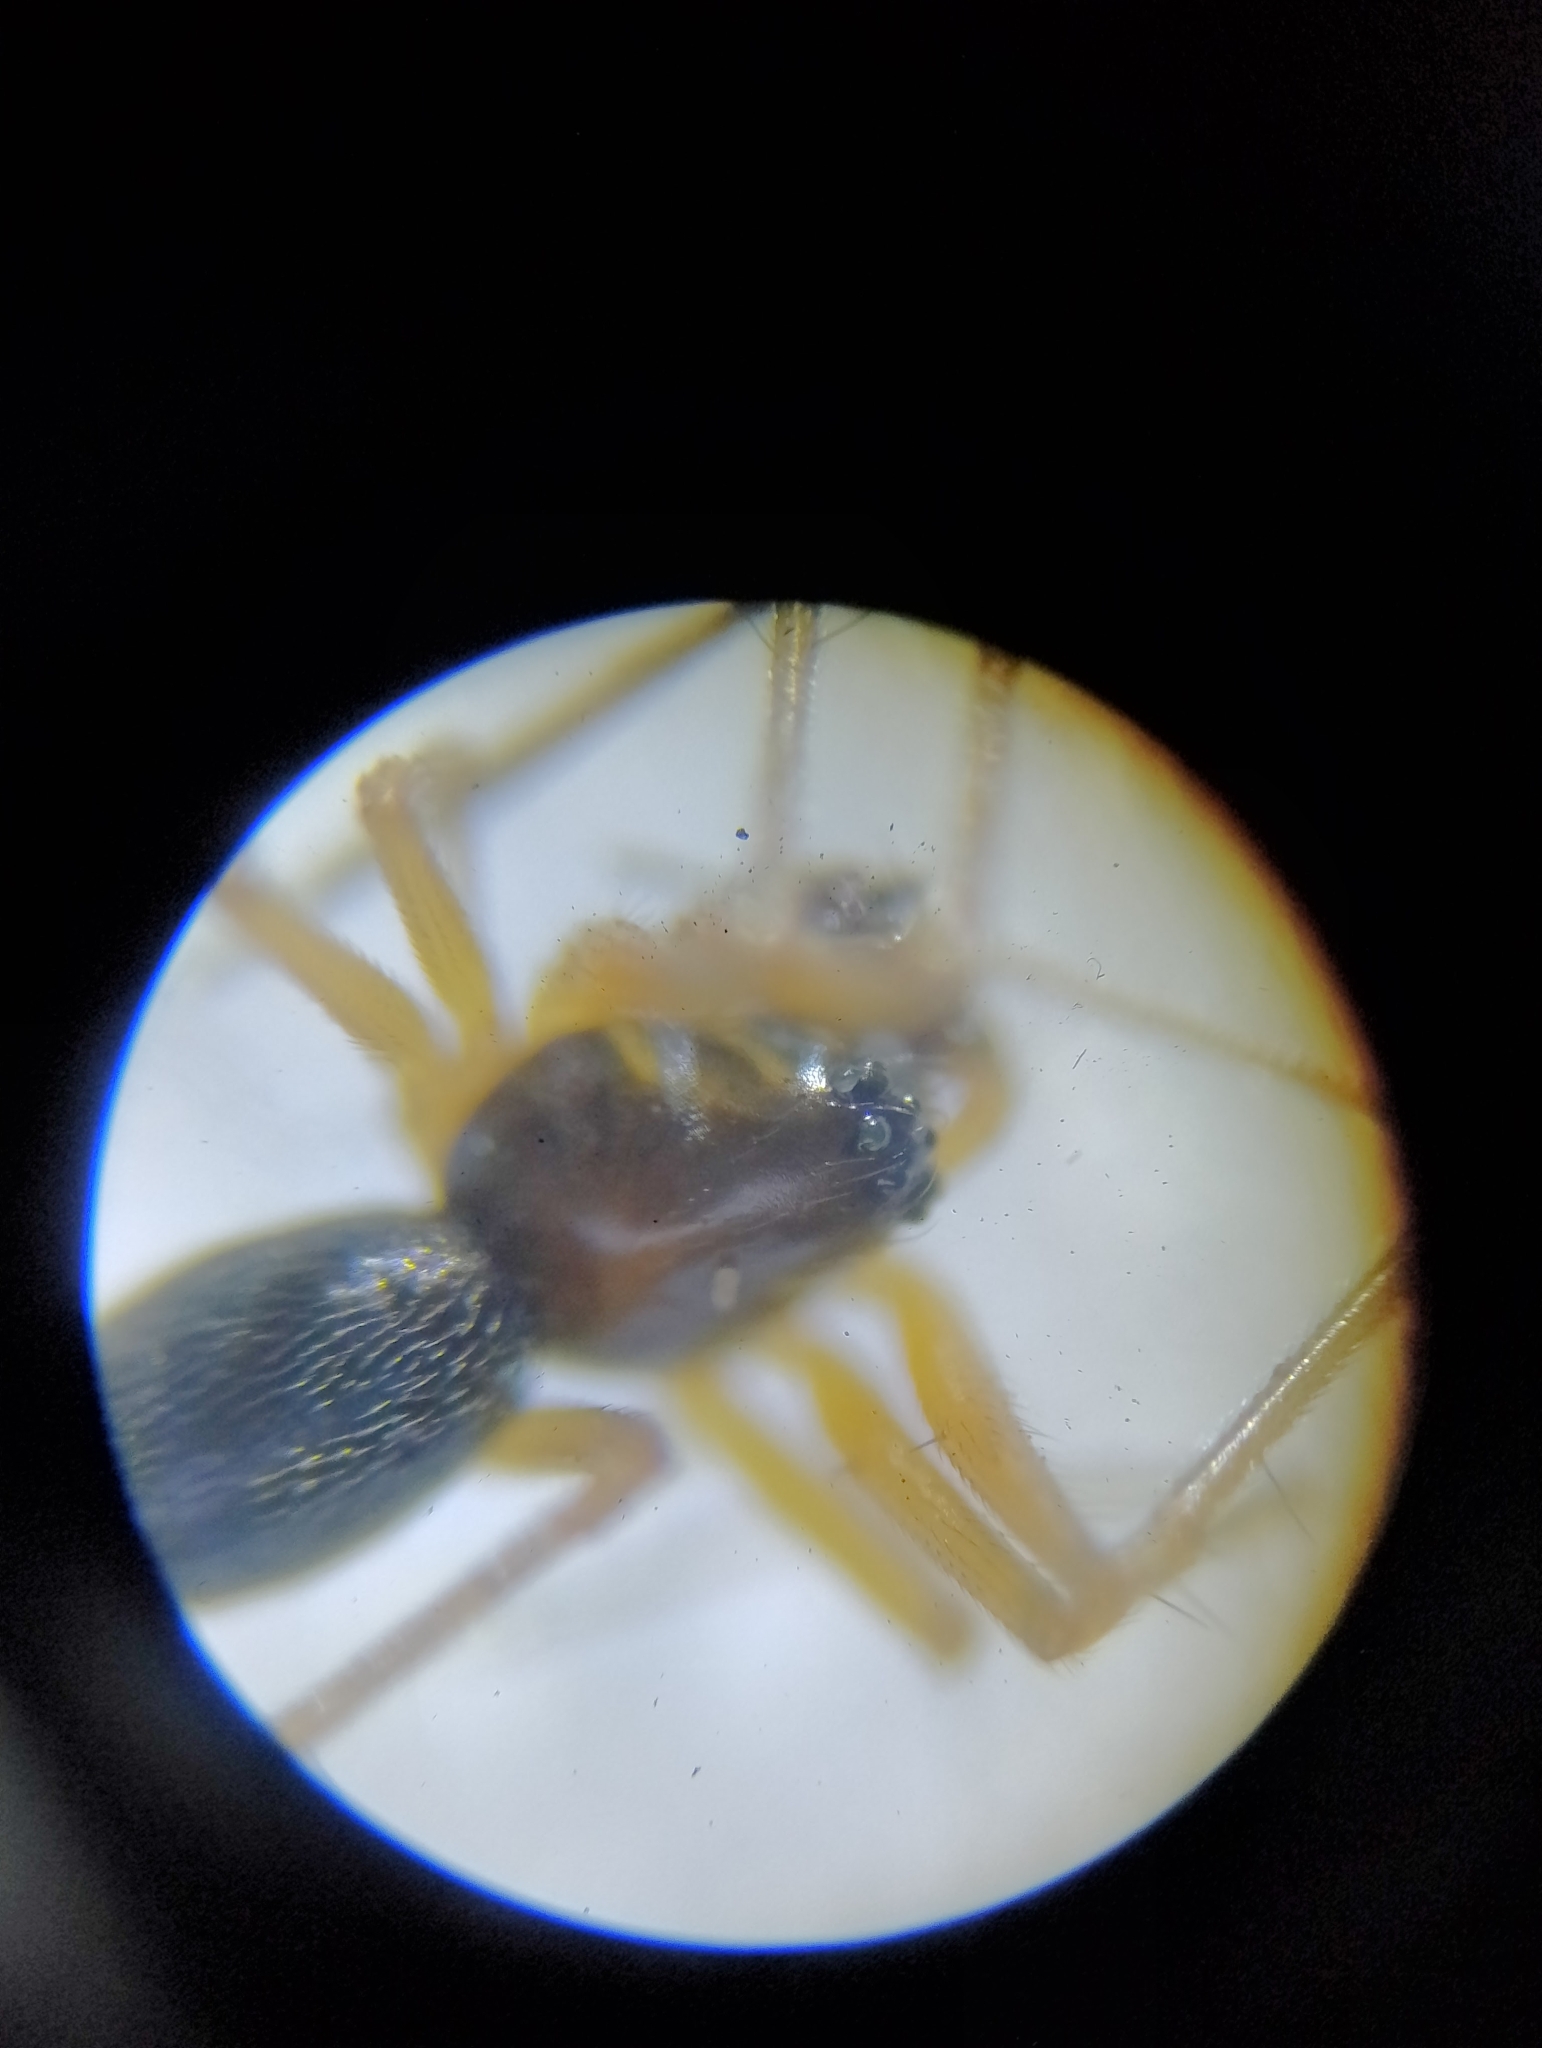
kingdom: Animalia
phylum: Arthropoda
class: Arachnida
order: Araneae
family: Linyphiidae
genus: Kaestneria
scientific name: Kaestneria pullata
